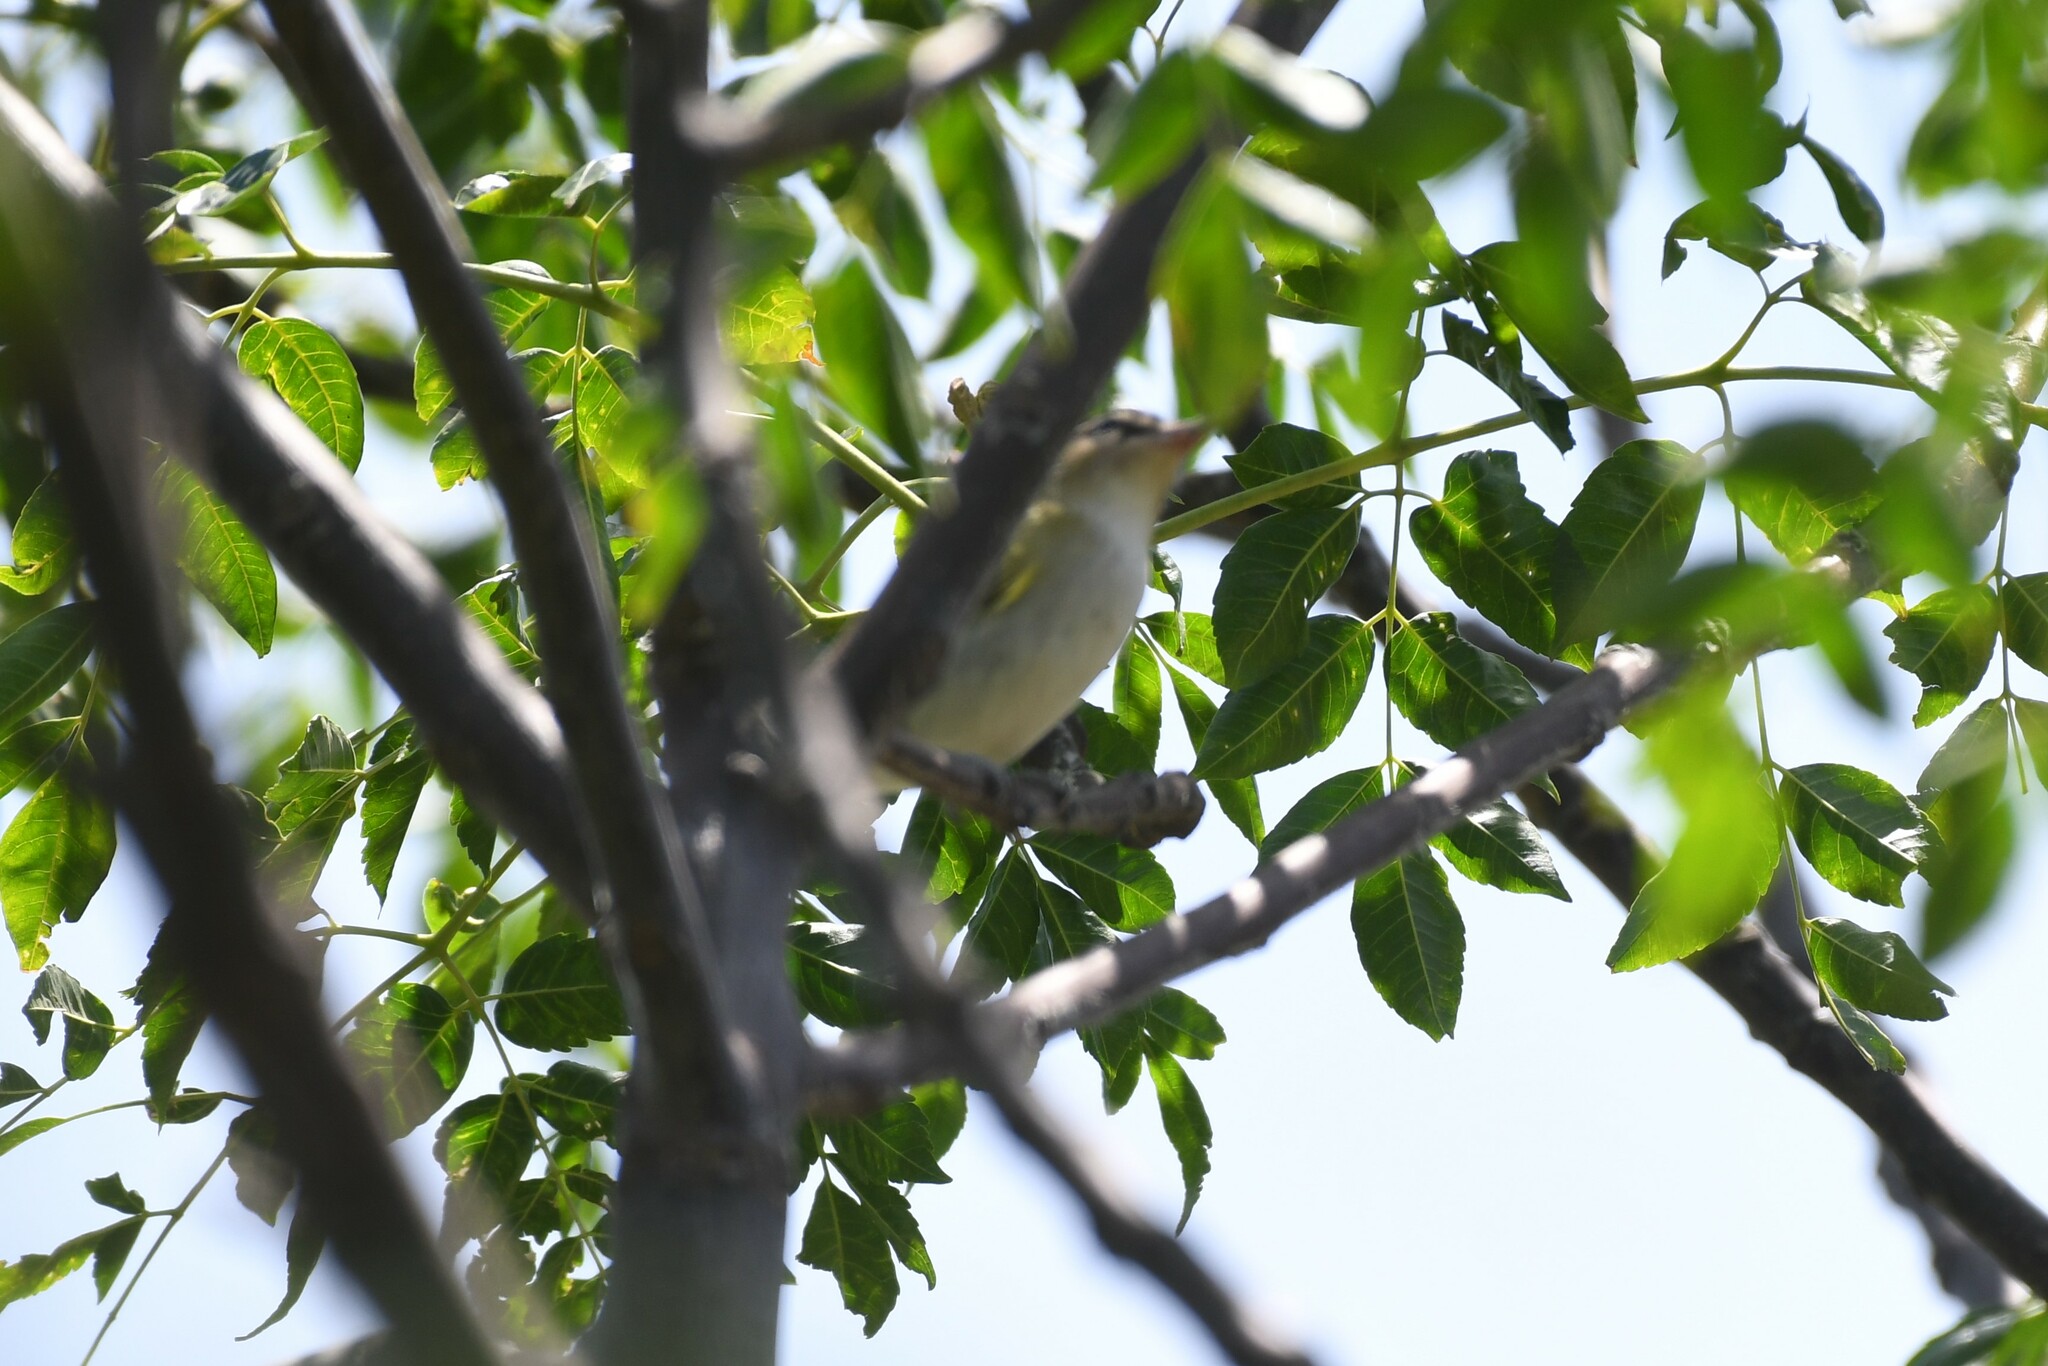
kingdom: Animalia
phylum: Chordata
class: Aves
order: Passeriformes
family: Vireonidae
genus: Vireo
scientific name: Vireo olivaceus
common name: Red-eyed vireo
